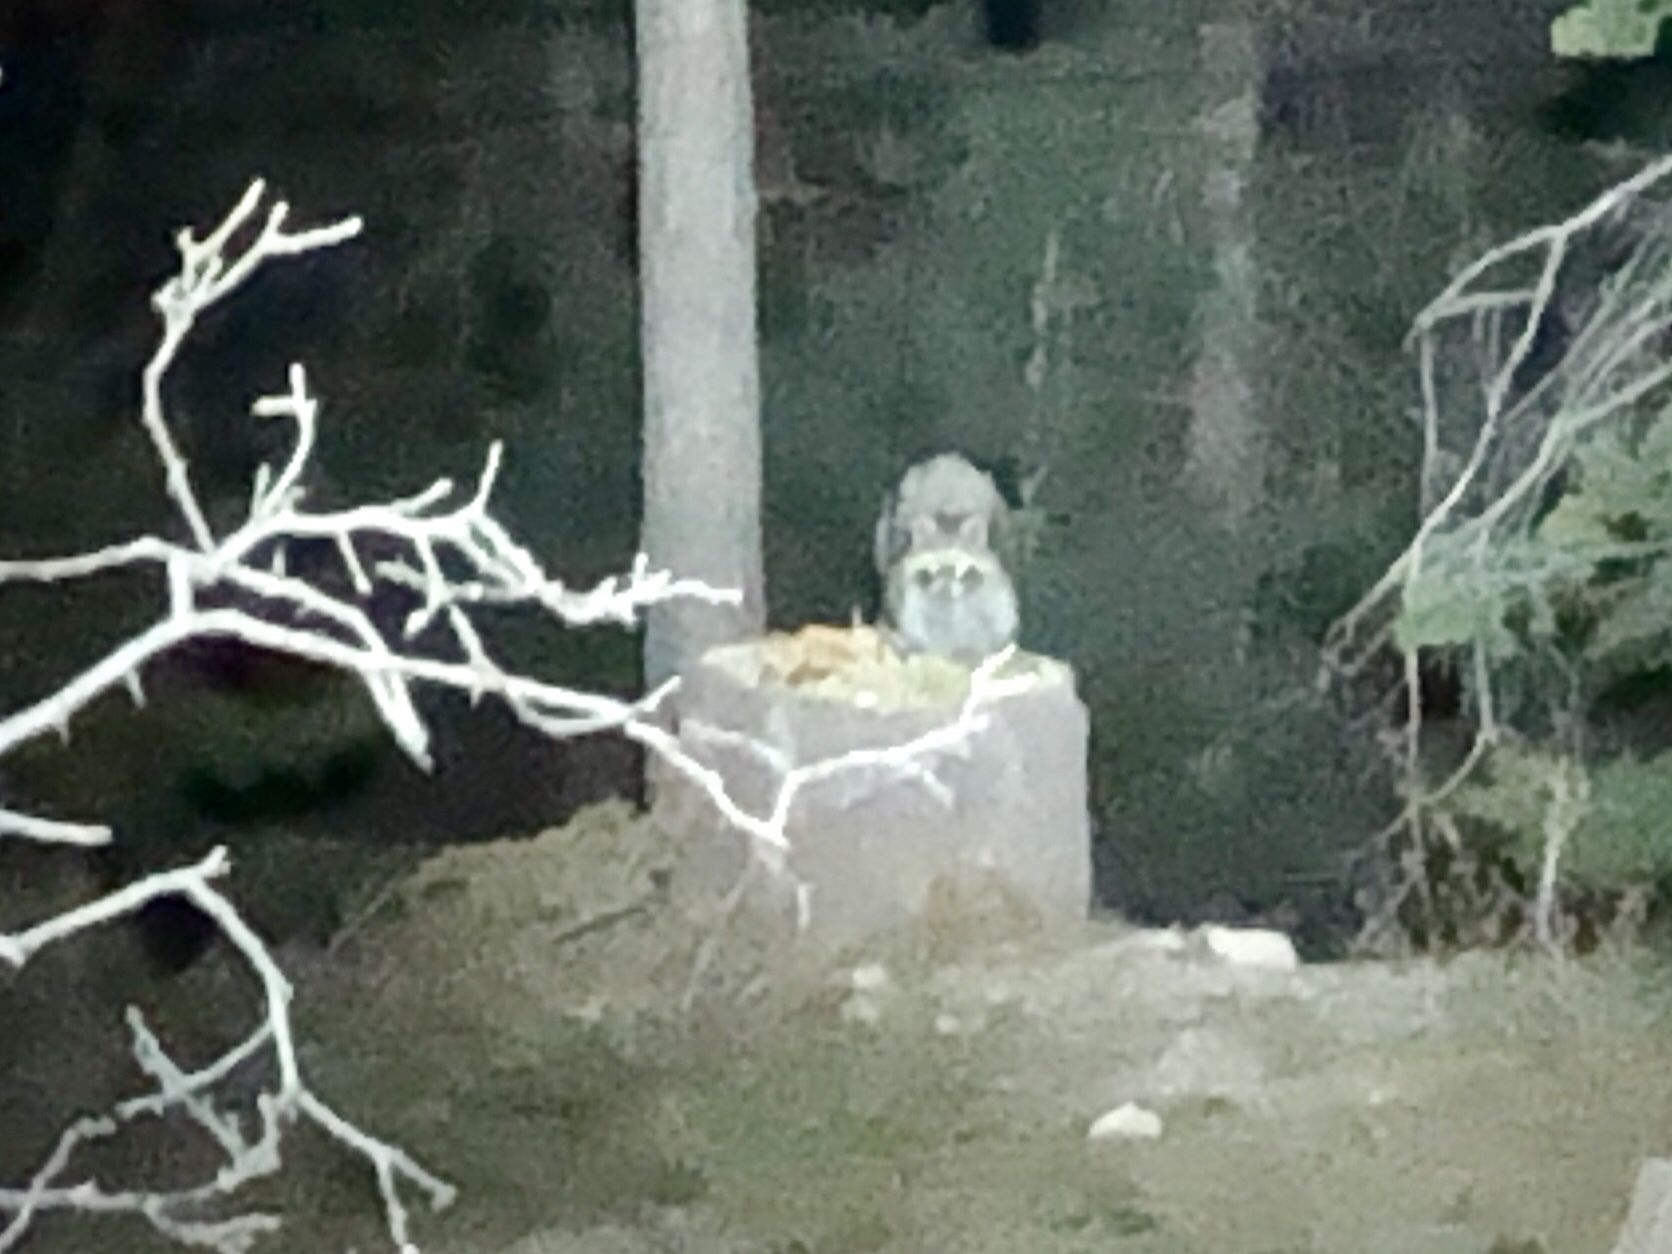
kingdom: Animalia
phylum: Chordata
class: Mammalia
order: Carnivora
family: Procyonidae
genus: Procyon
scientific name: Procyon lotor
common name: Raccoon
